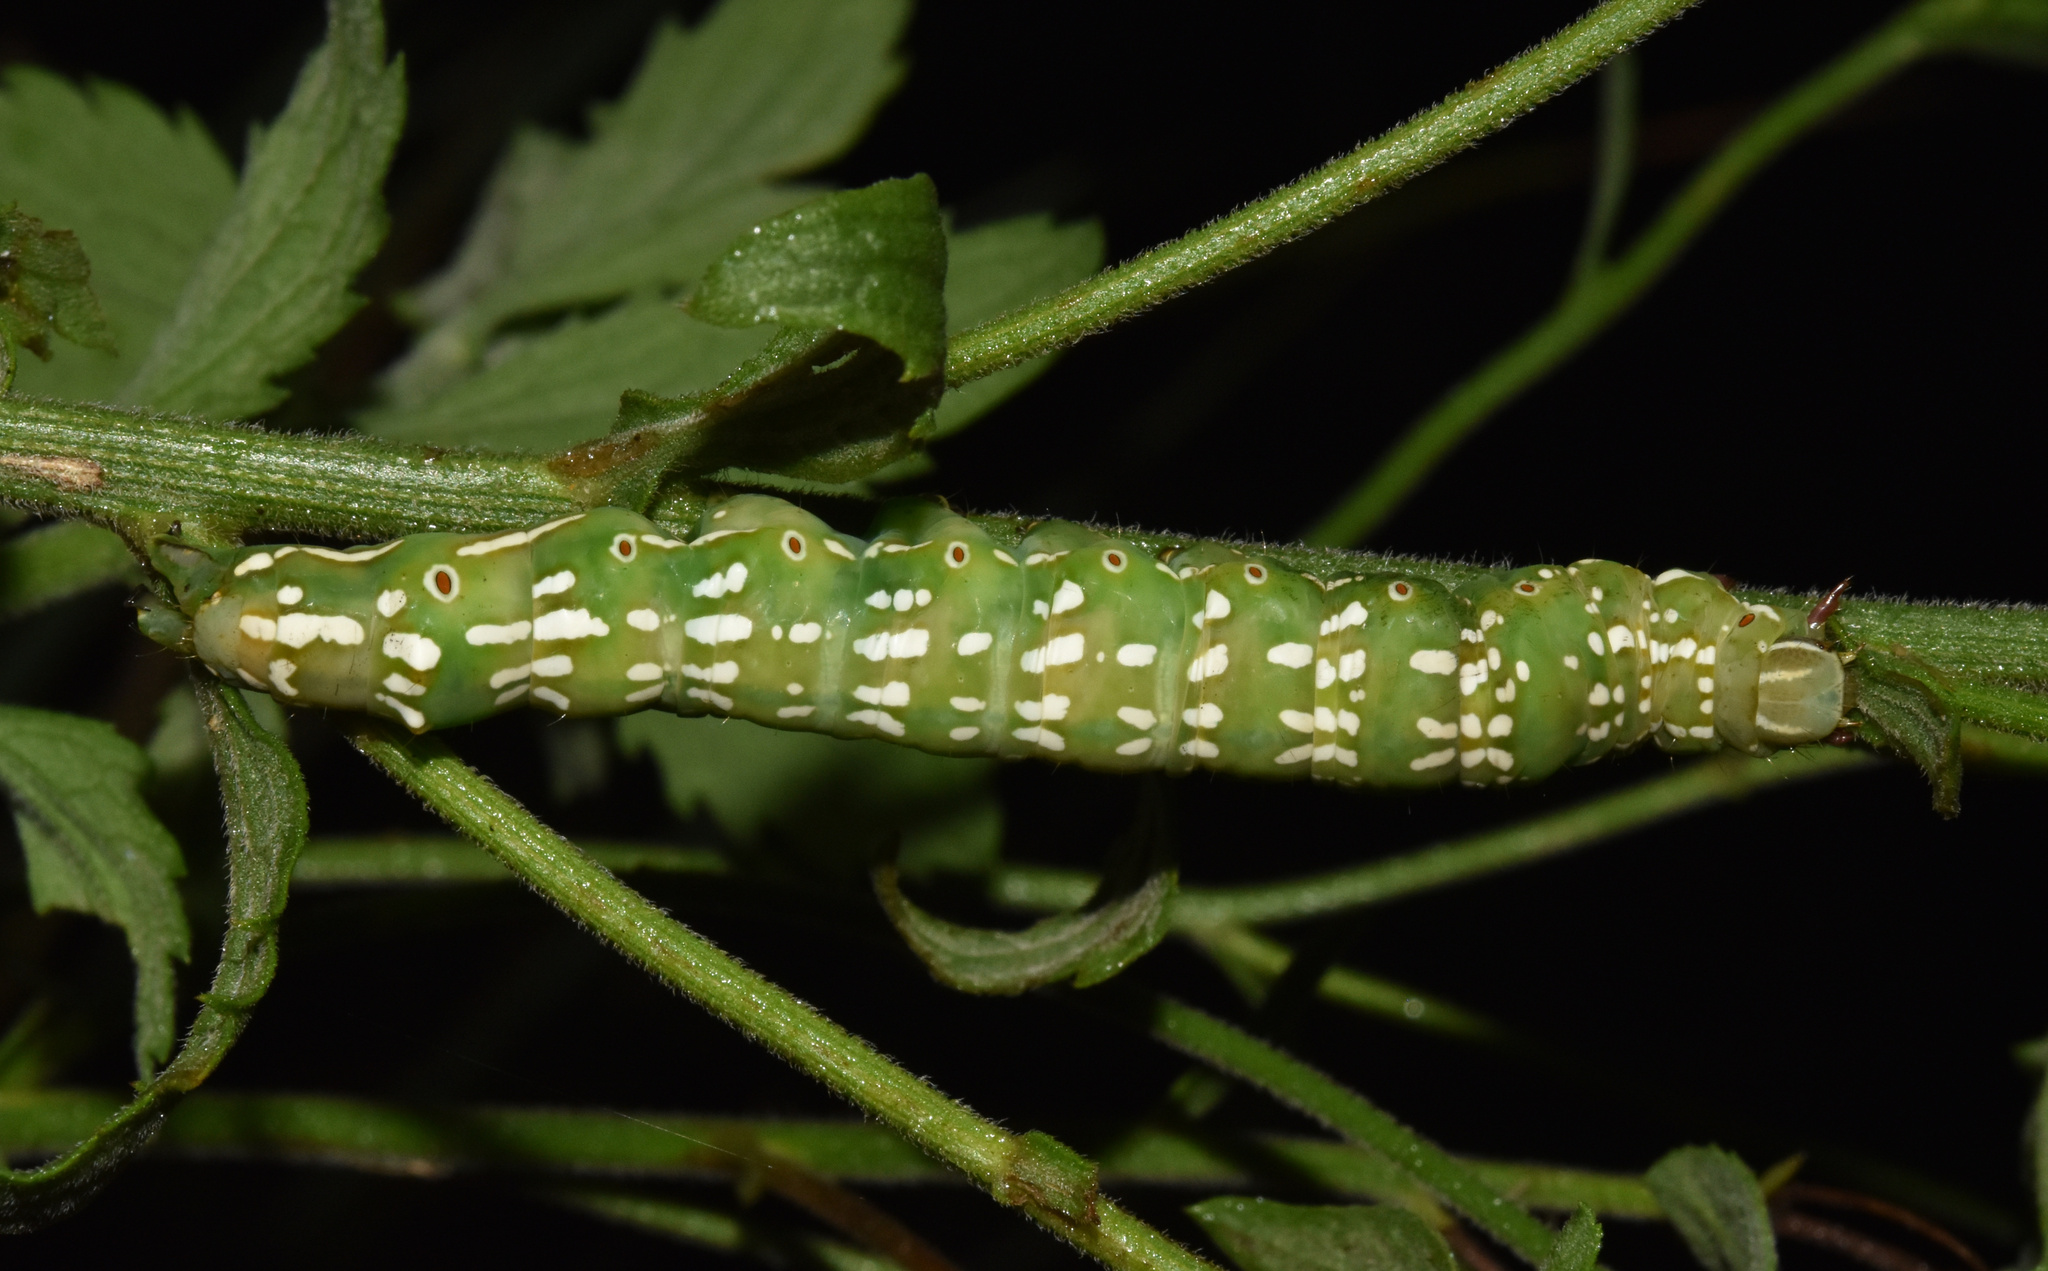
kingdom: Animalia
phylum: Arthropoda
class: Insecta
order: Lepidoptera
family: Erebidae
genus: Sphingomorpha
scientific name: Sphingomorpha chlorea
